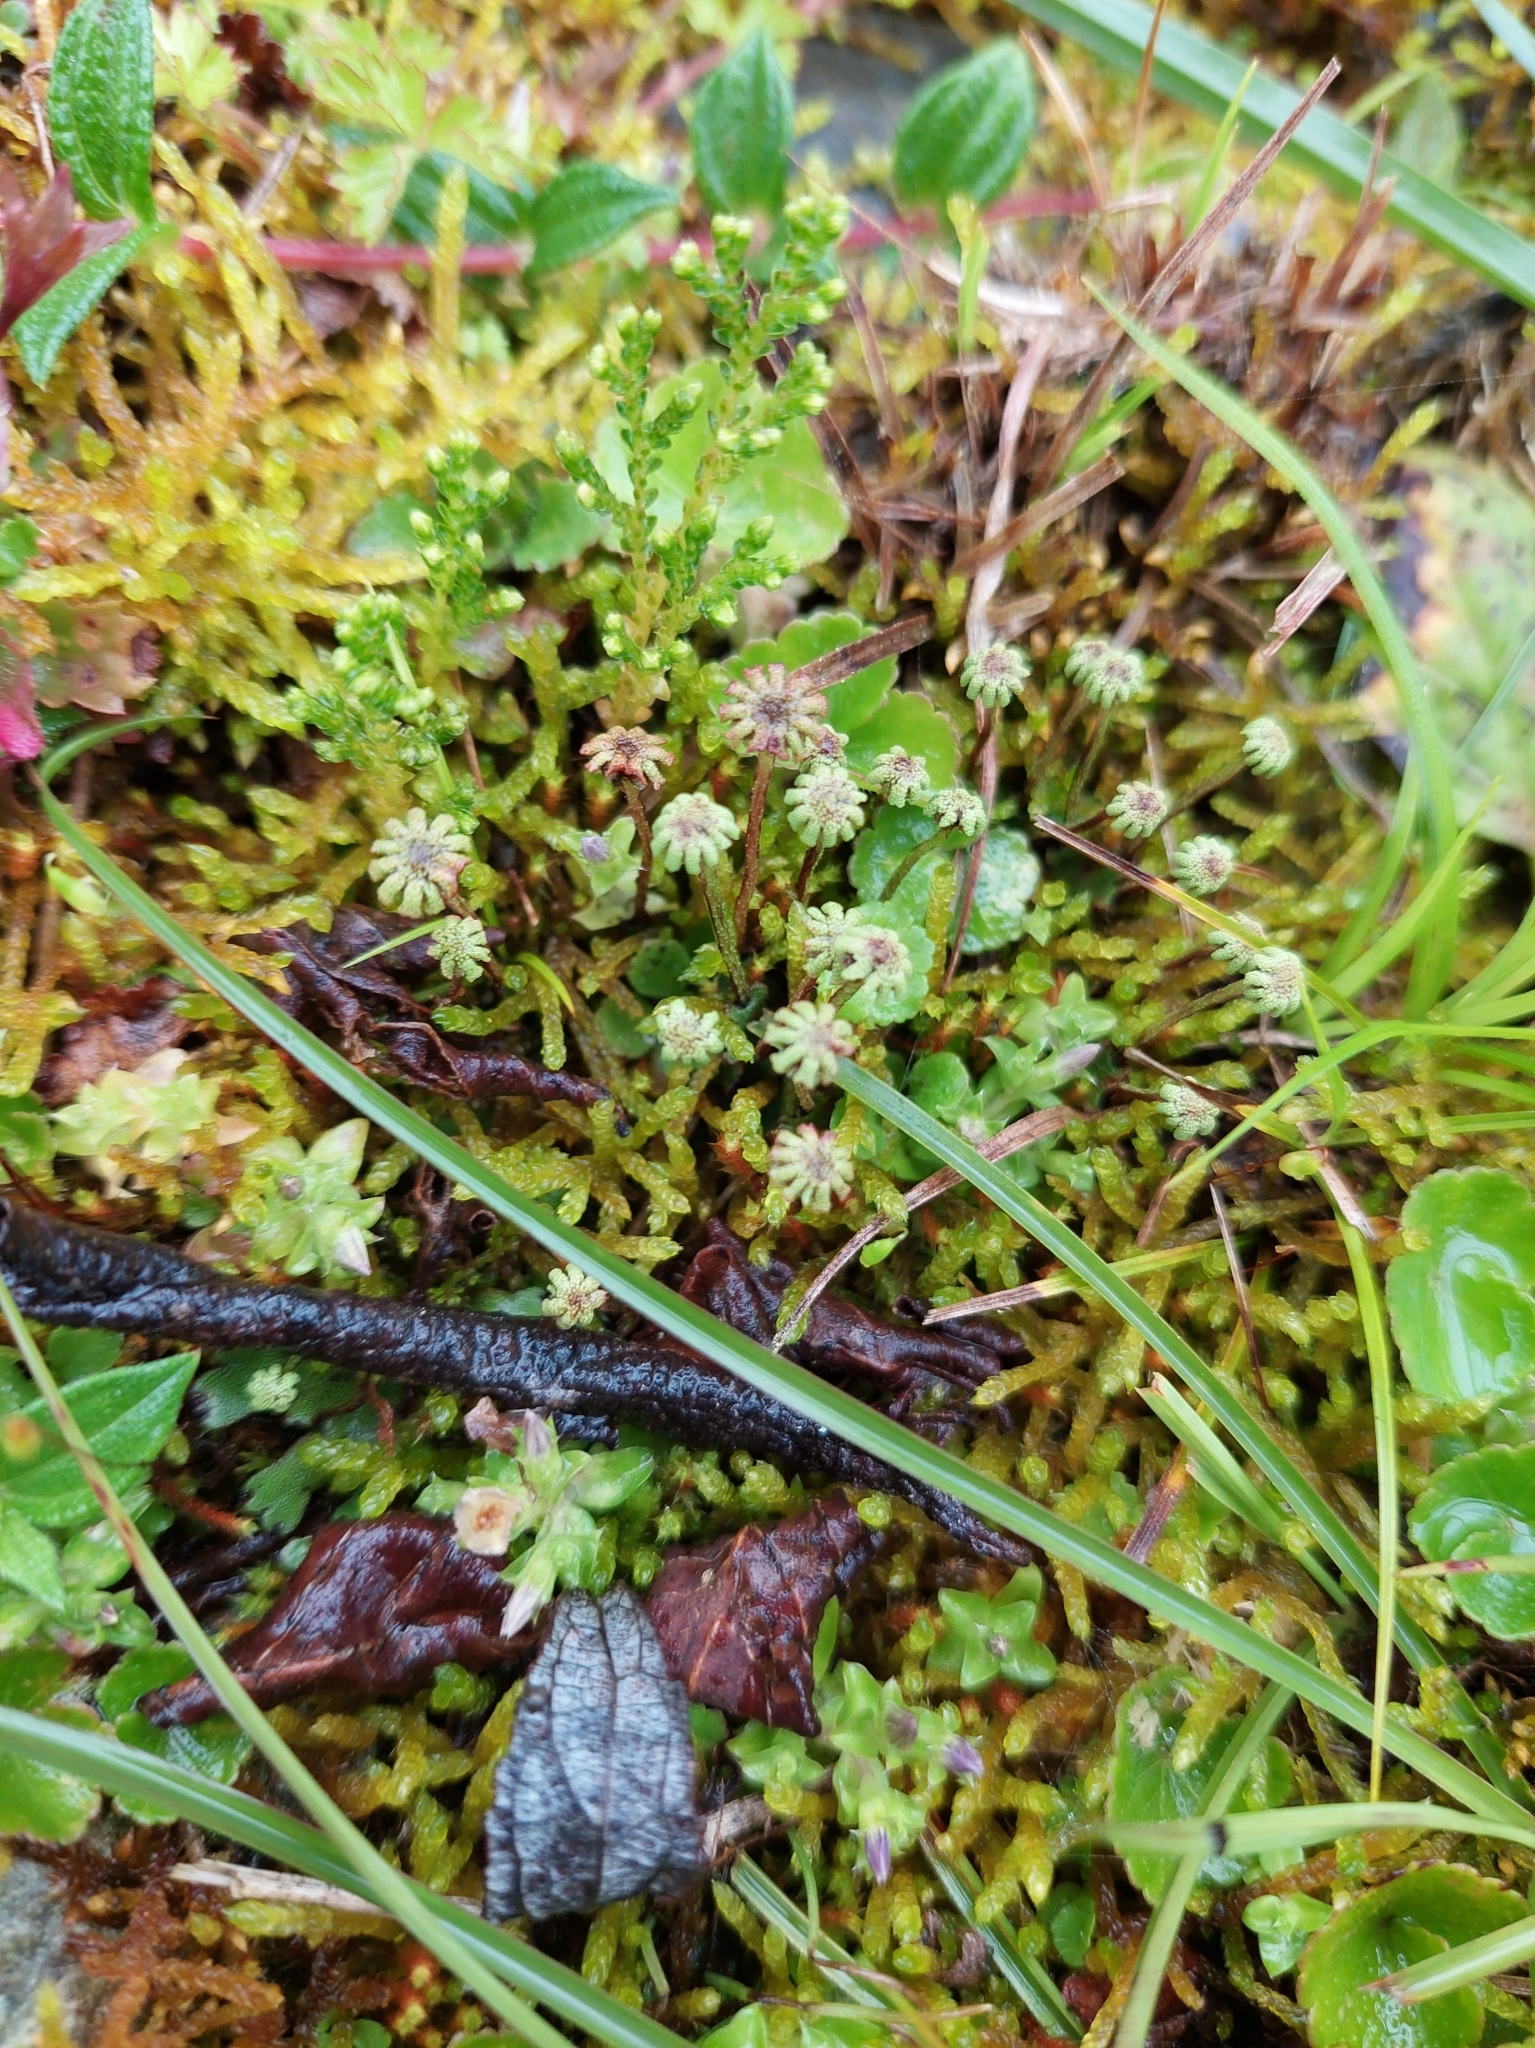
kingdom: Plantae
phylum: Marchantiophyta
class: Marchantiopsida
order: Marchantiales
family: Marchantiaceae
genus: Marchantia
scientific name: Marchantia emarginata
